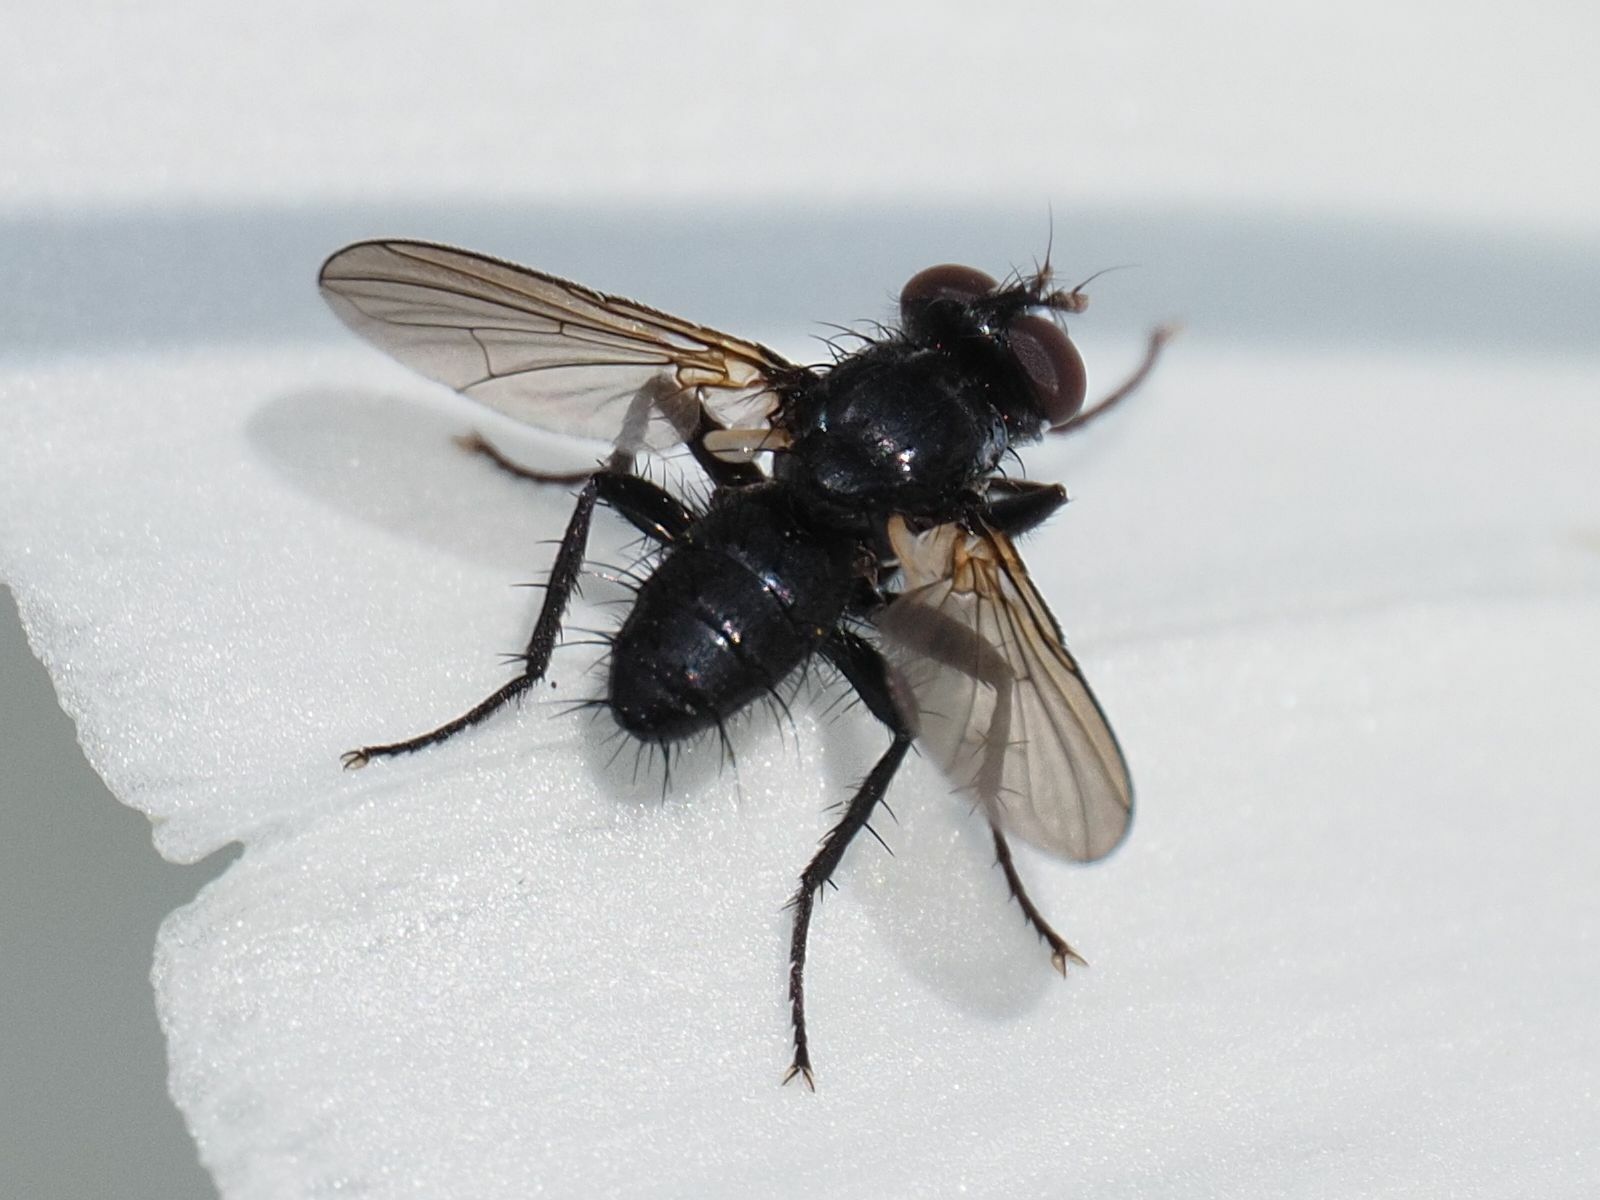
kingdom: Animalia
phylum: Arthropoda
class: Insecta
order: Diptera
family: Tachinidae
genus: Phania
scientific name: Phania funesta
